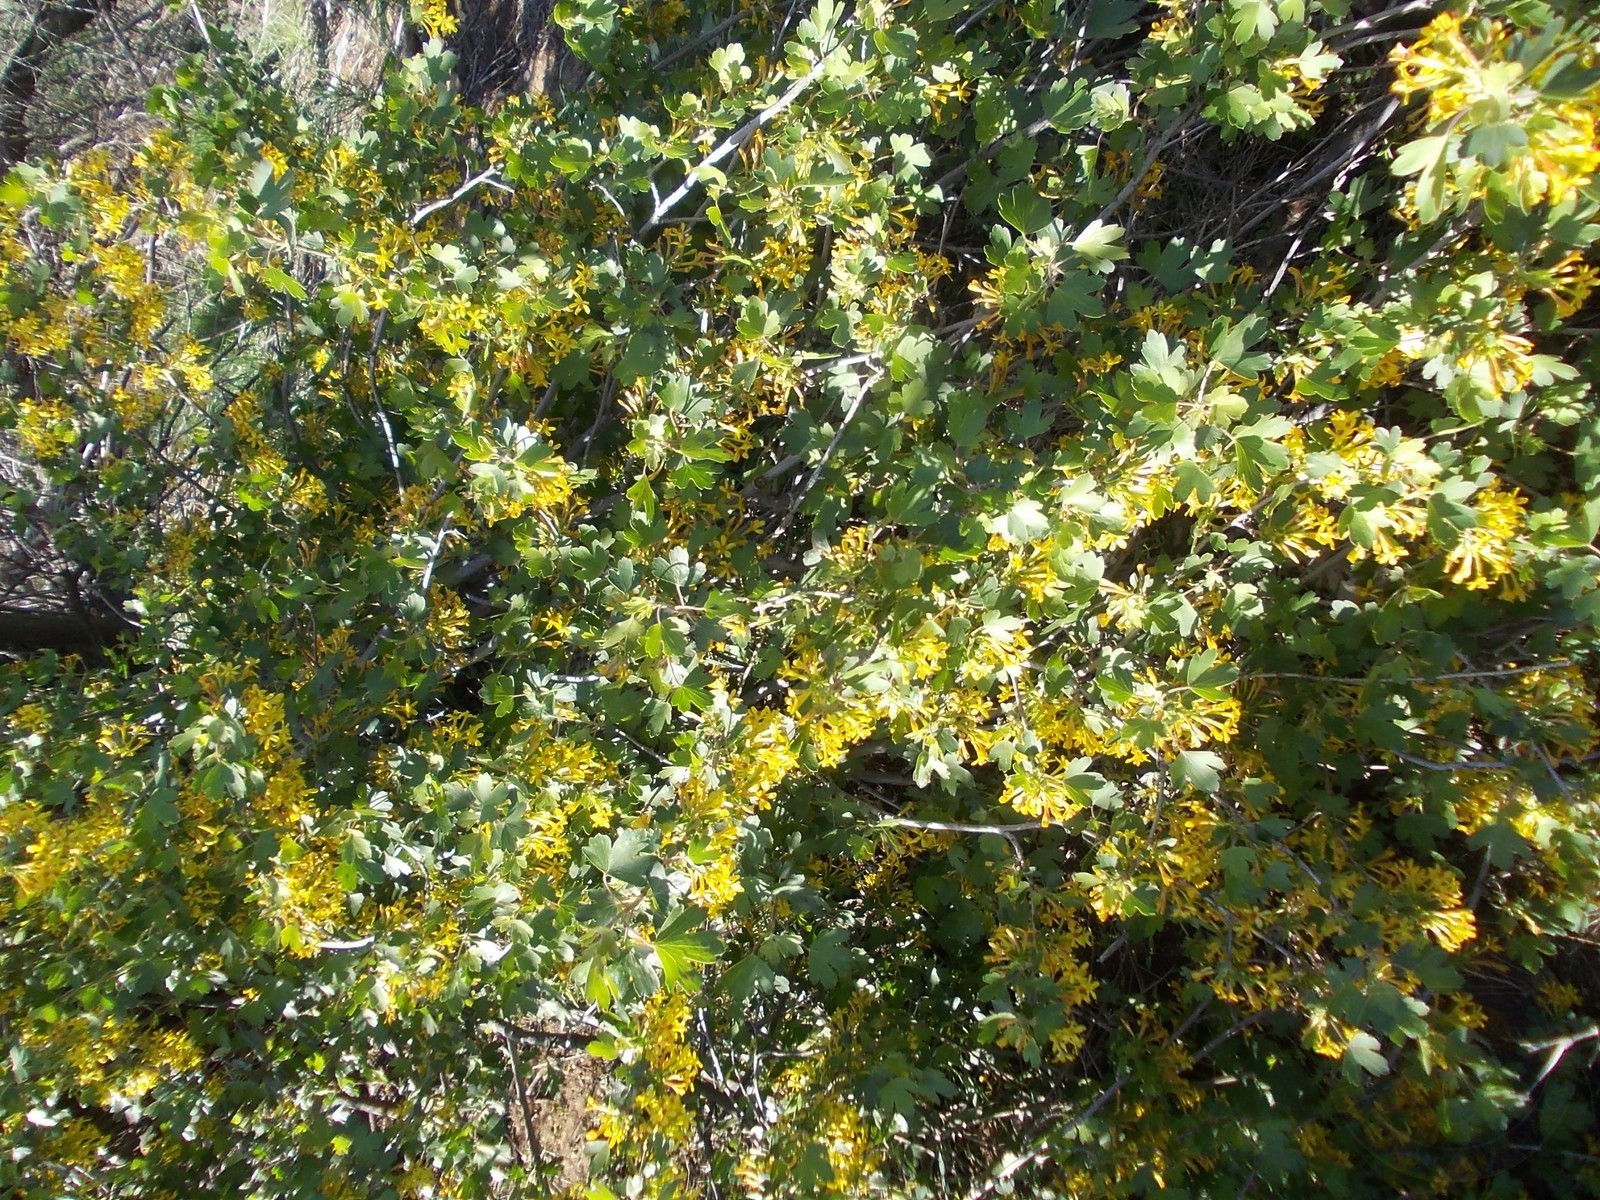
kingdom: Plantae
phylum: Tracheophyta
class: Magnoliopsida
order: Saxifragales
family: Grossulariaceae
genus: Ribes
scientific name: Ribes aureum
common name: Golden currant
